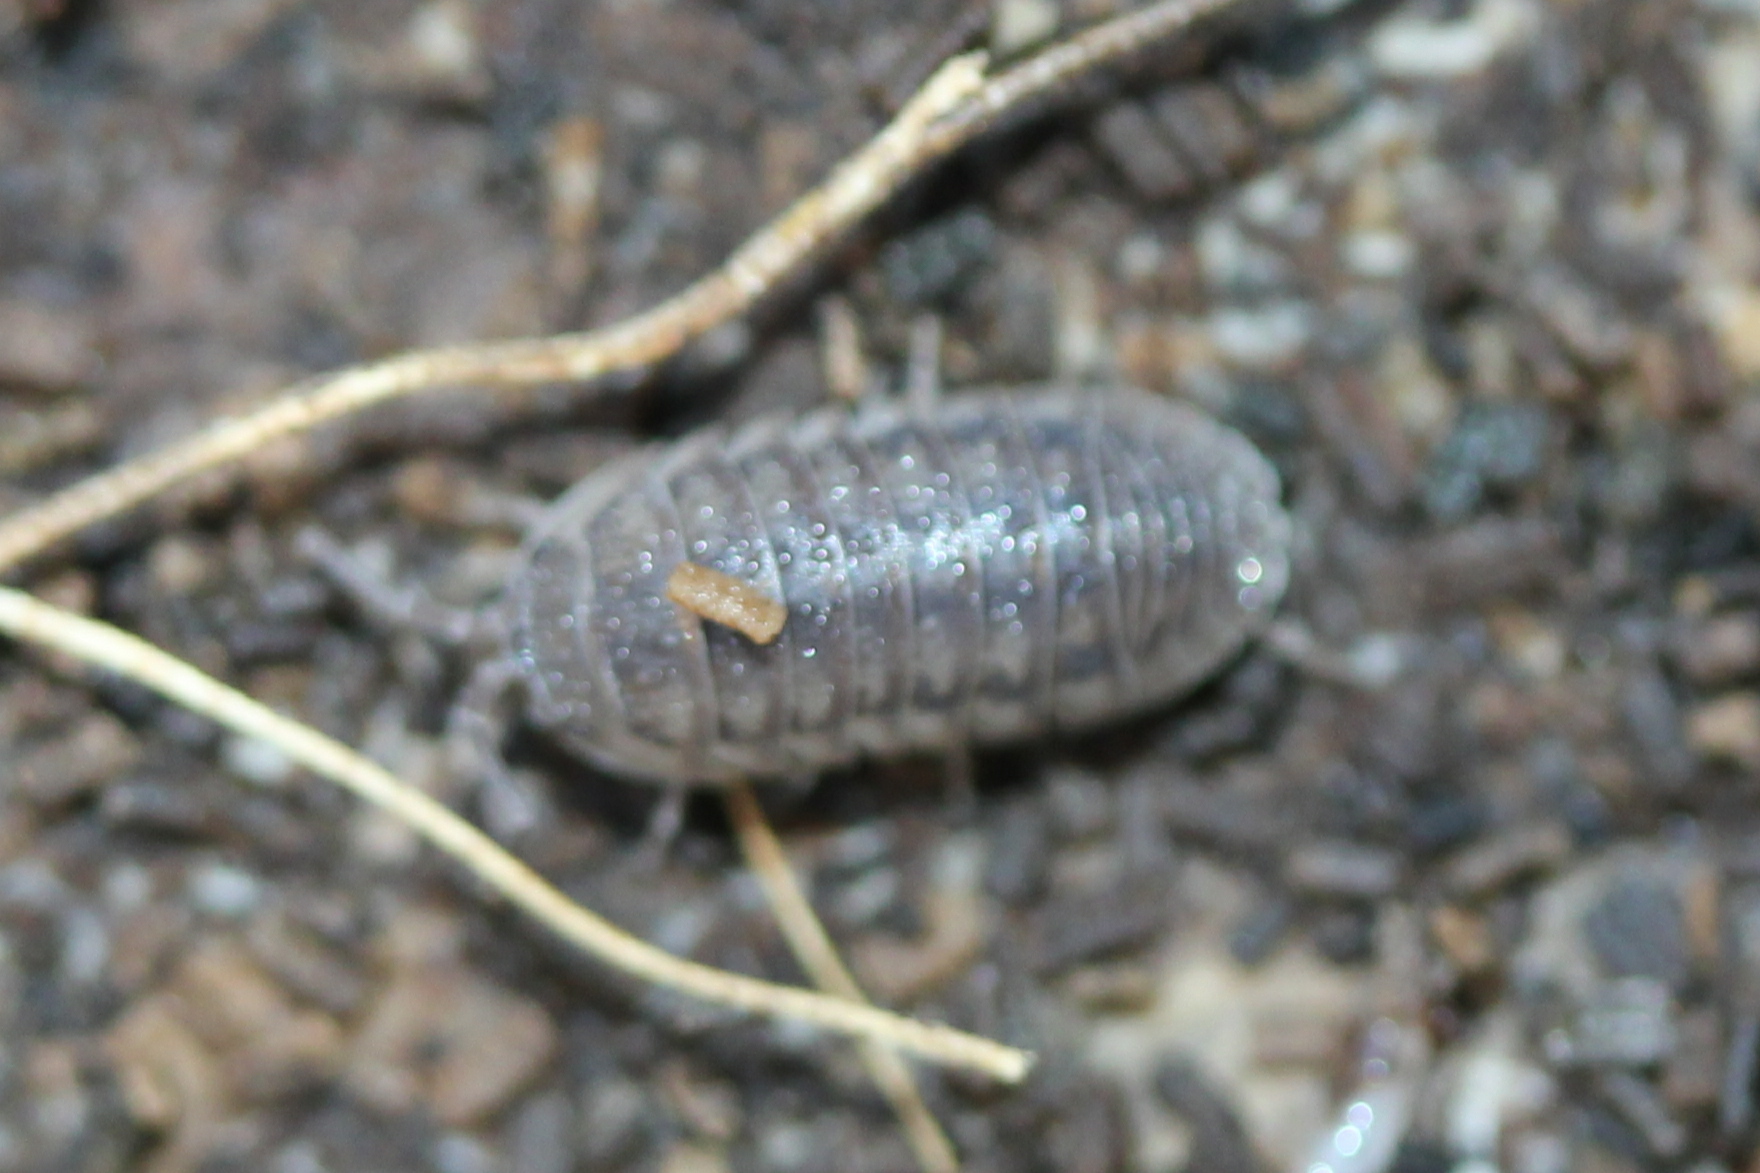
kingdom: Animalia
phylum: Arthropoda
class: Malacostraca
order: Isopoda
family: Armadillidiidae
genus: Armadillidium
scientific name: Armadillidium nasatum
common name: Isopod
